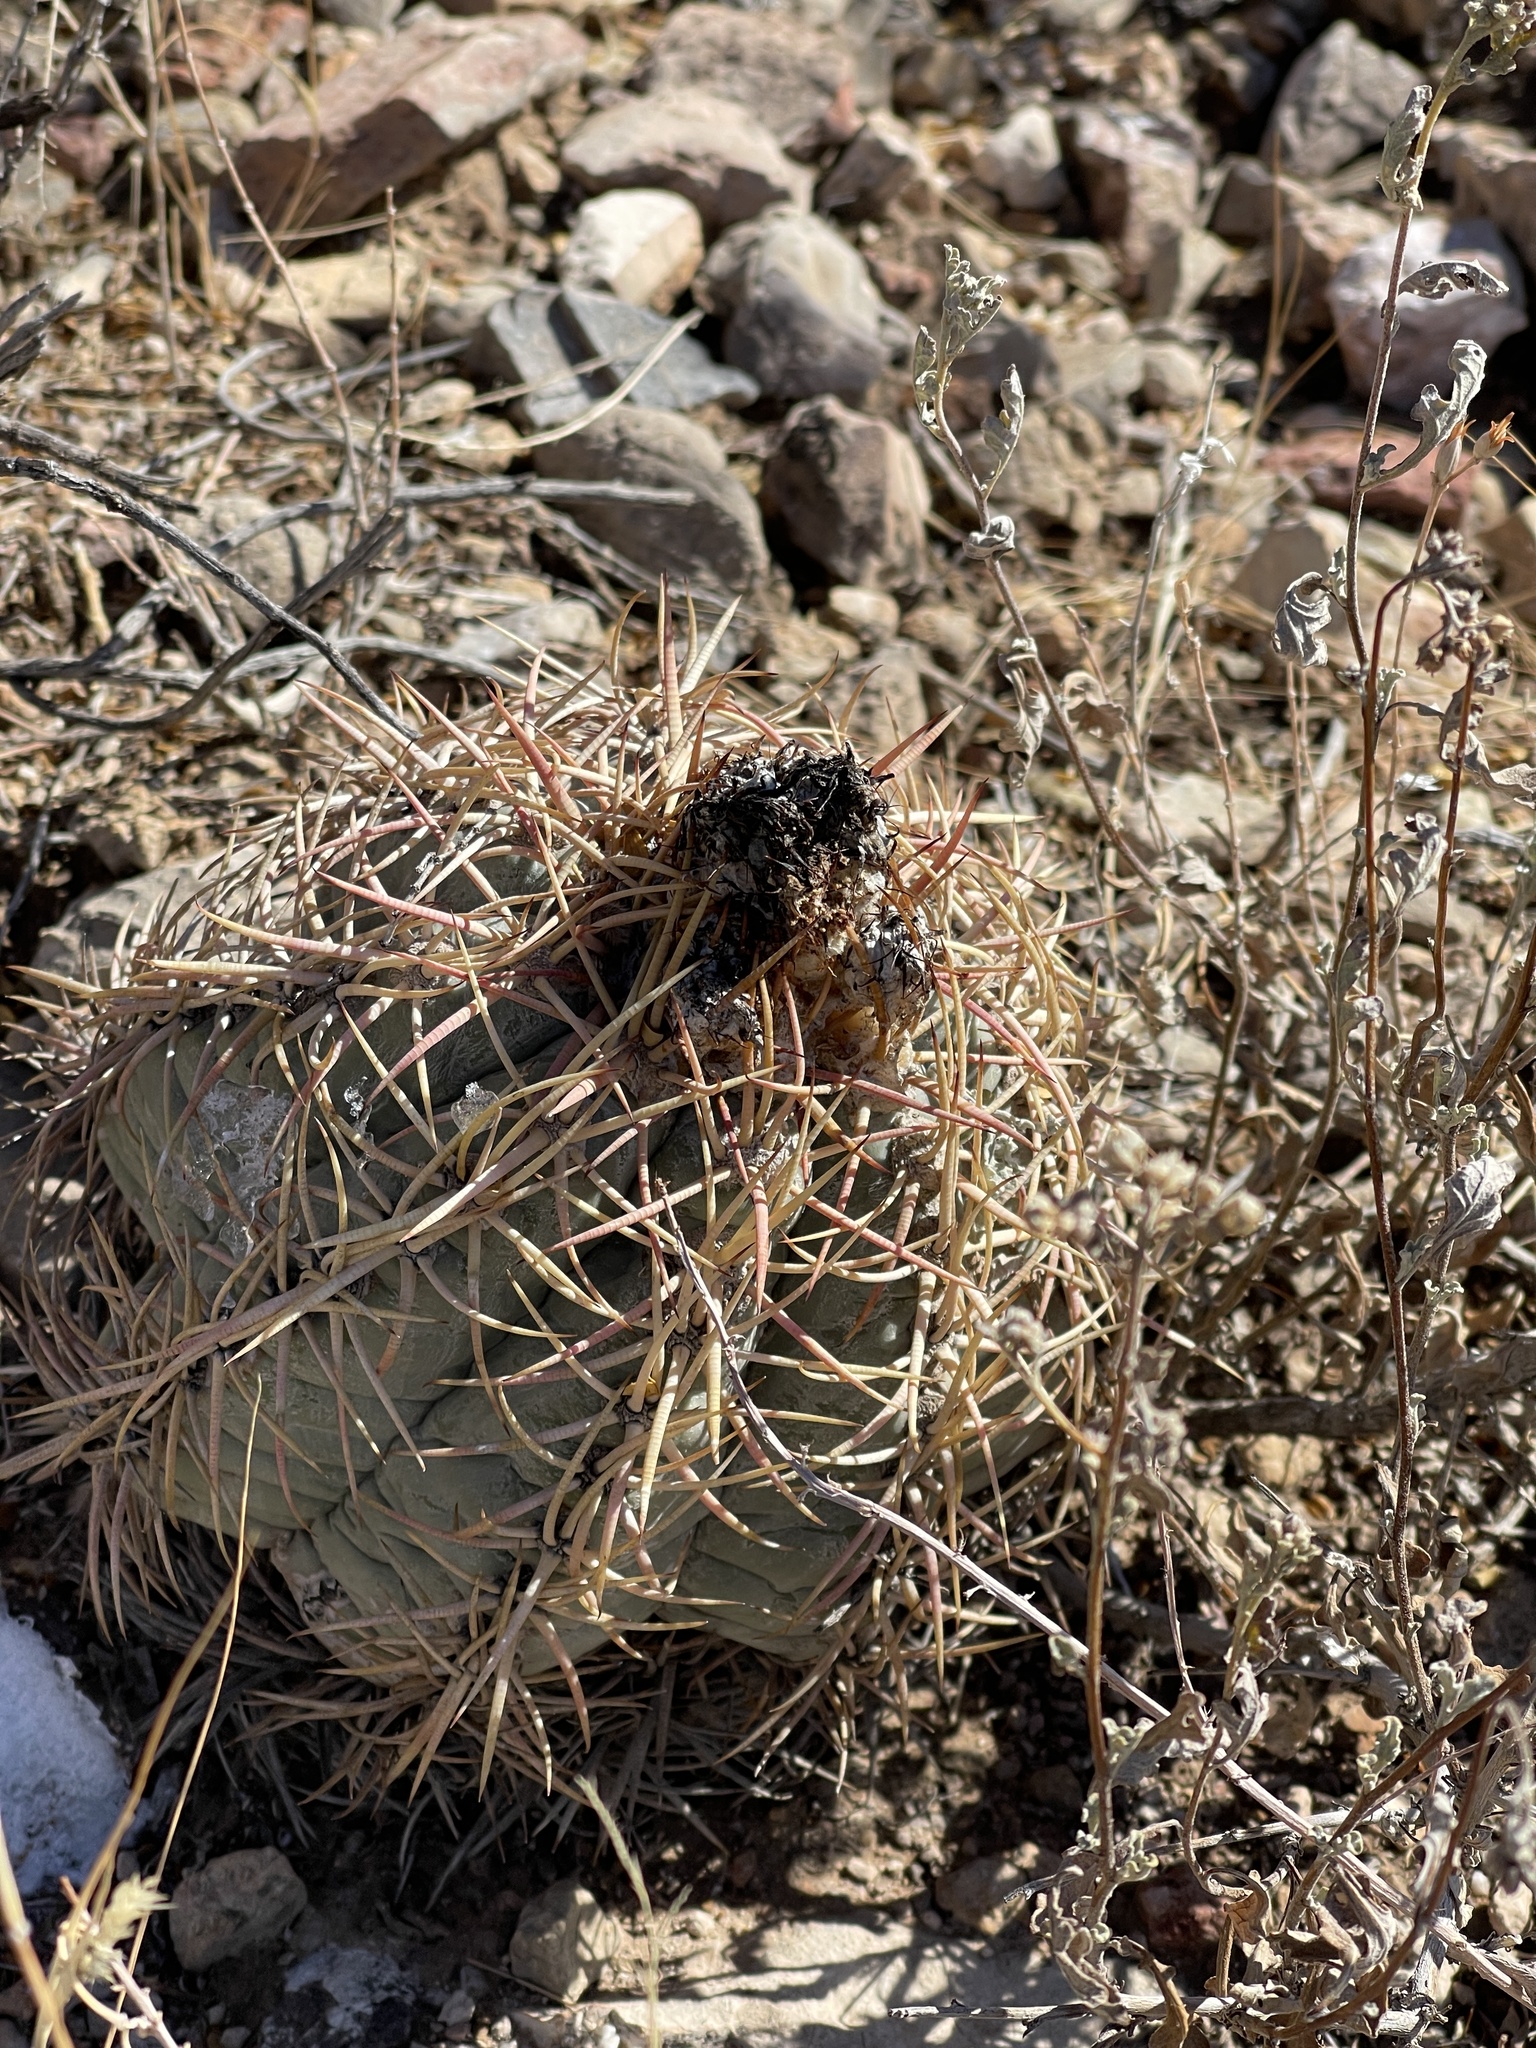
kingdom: Plantae
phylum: Tracheophyta
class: Magnoliopsida
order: Caryophyllales
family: Cactaceae
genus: Echinocactus
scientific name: Echinocactus horizonthalonius
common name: Devilshead
